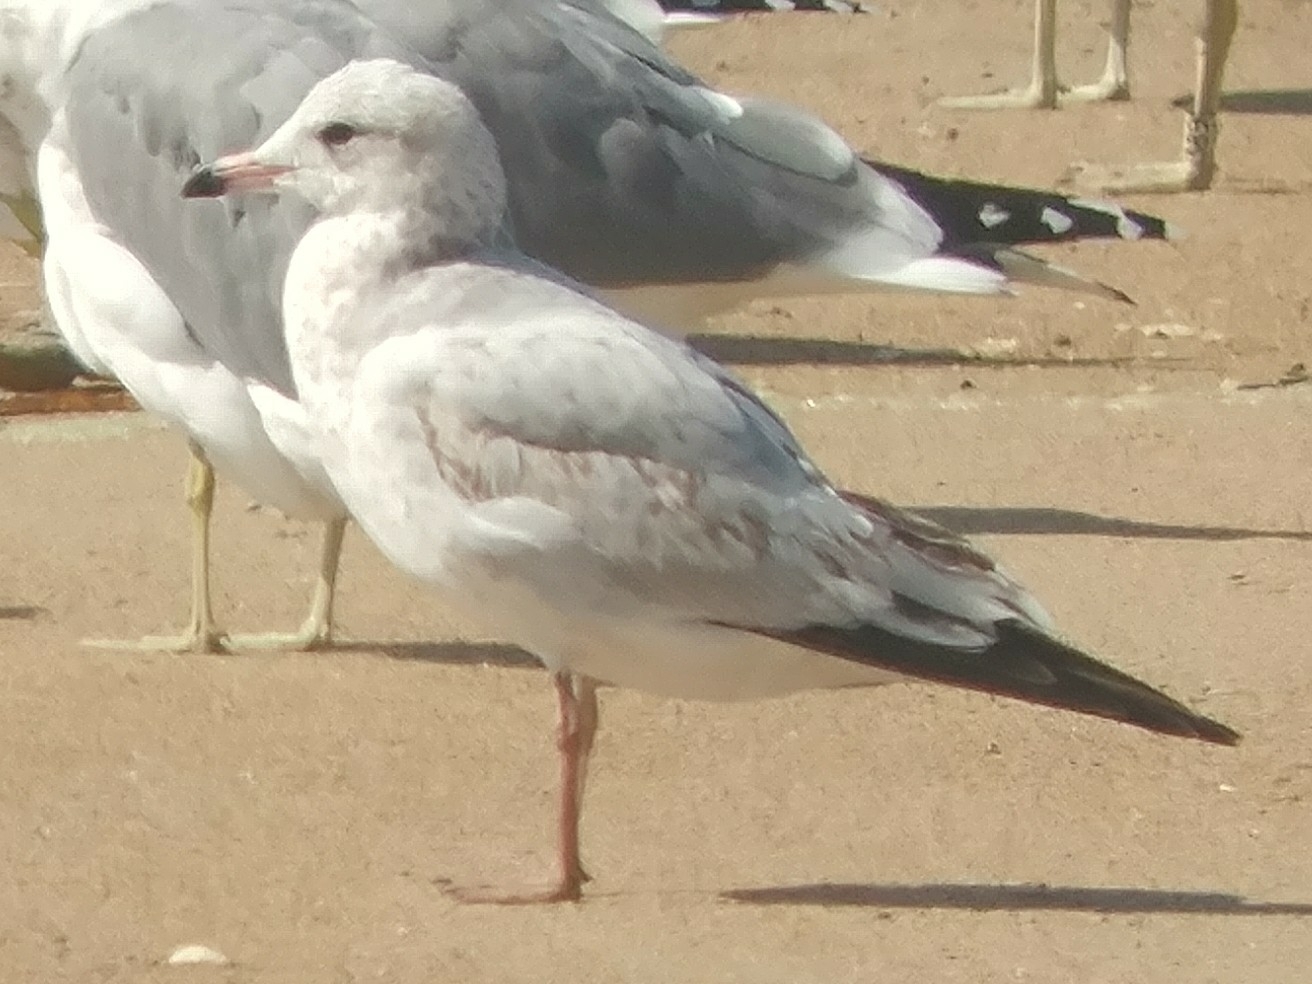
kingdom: Animalia
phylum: Chordata
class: Aves
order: Charadriiformes
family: Laridae
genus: Larus
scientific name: Larus delawarensis
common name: Ring-billed gull
